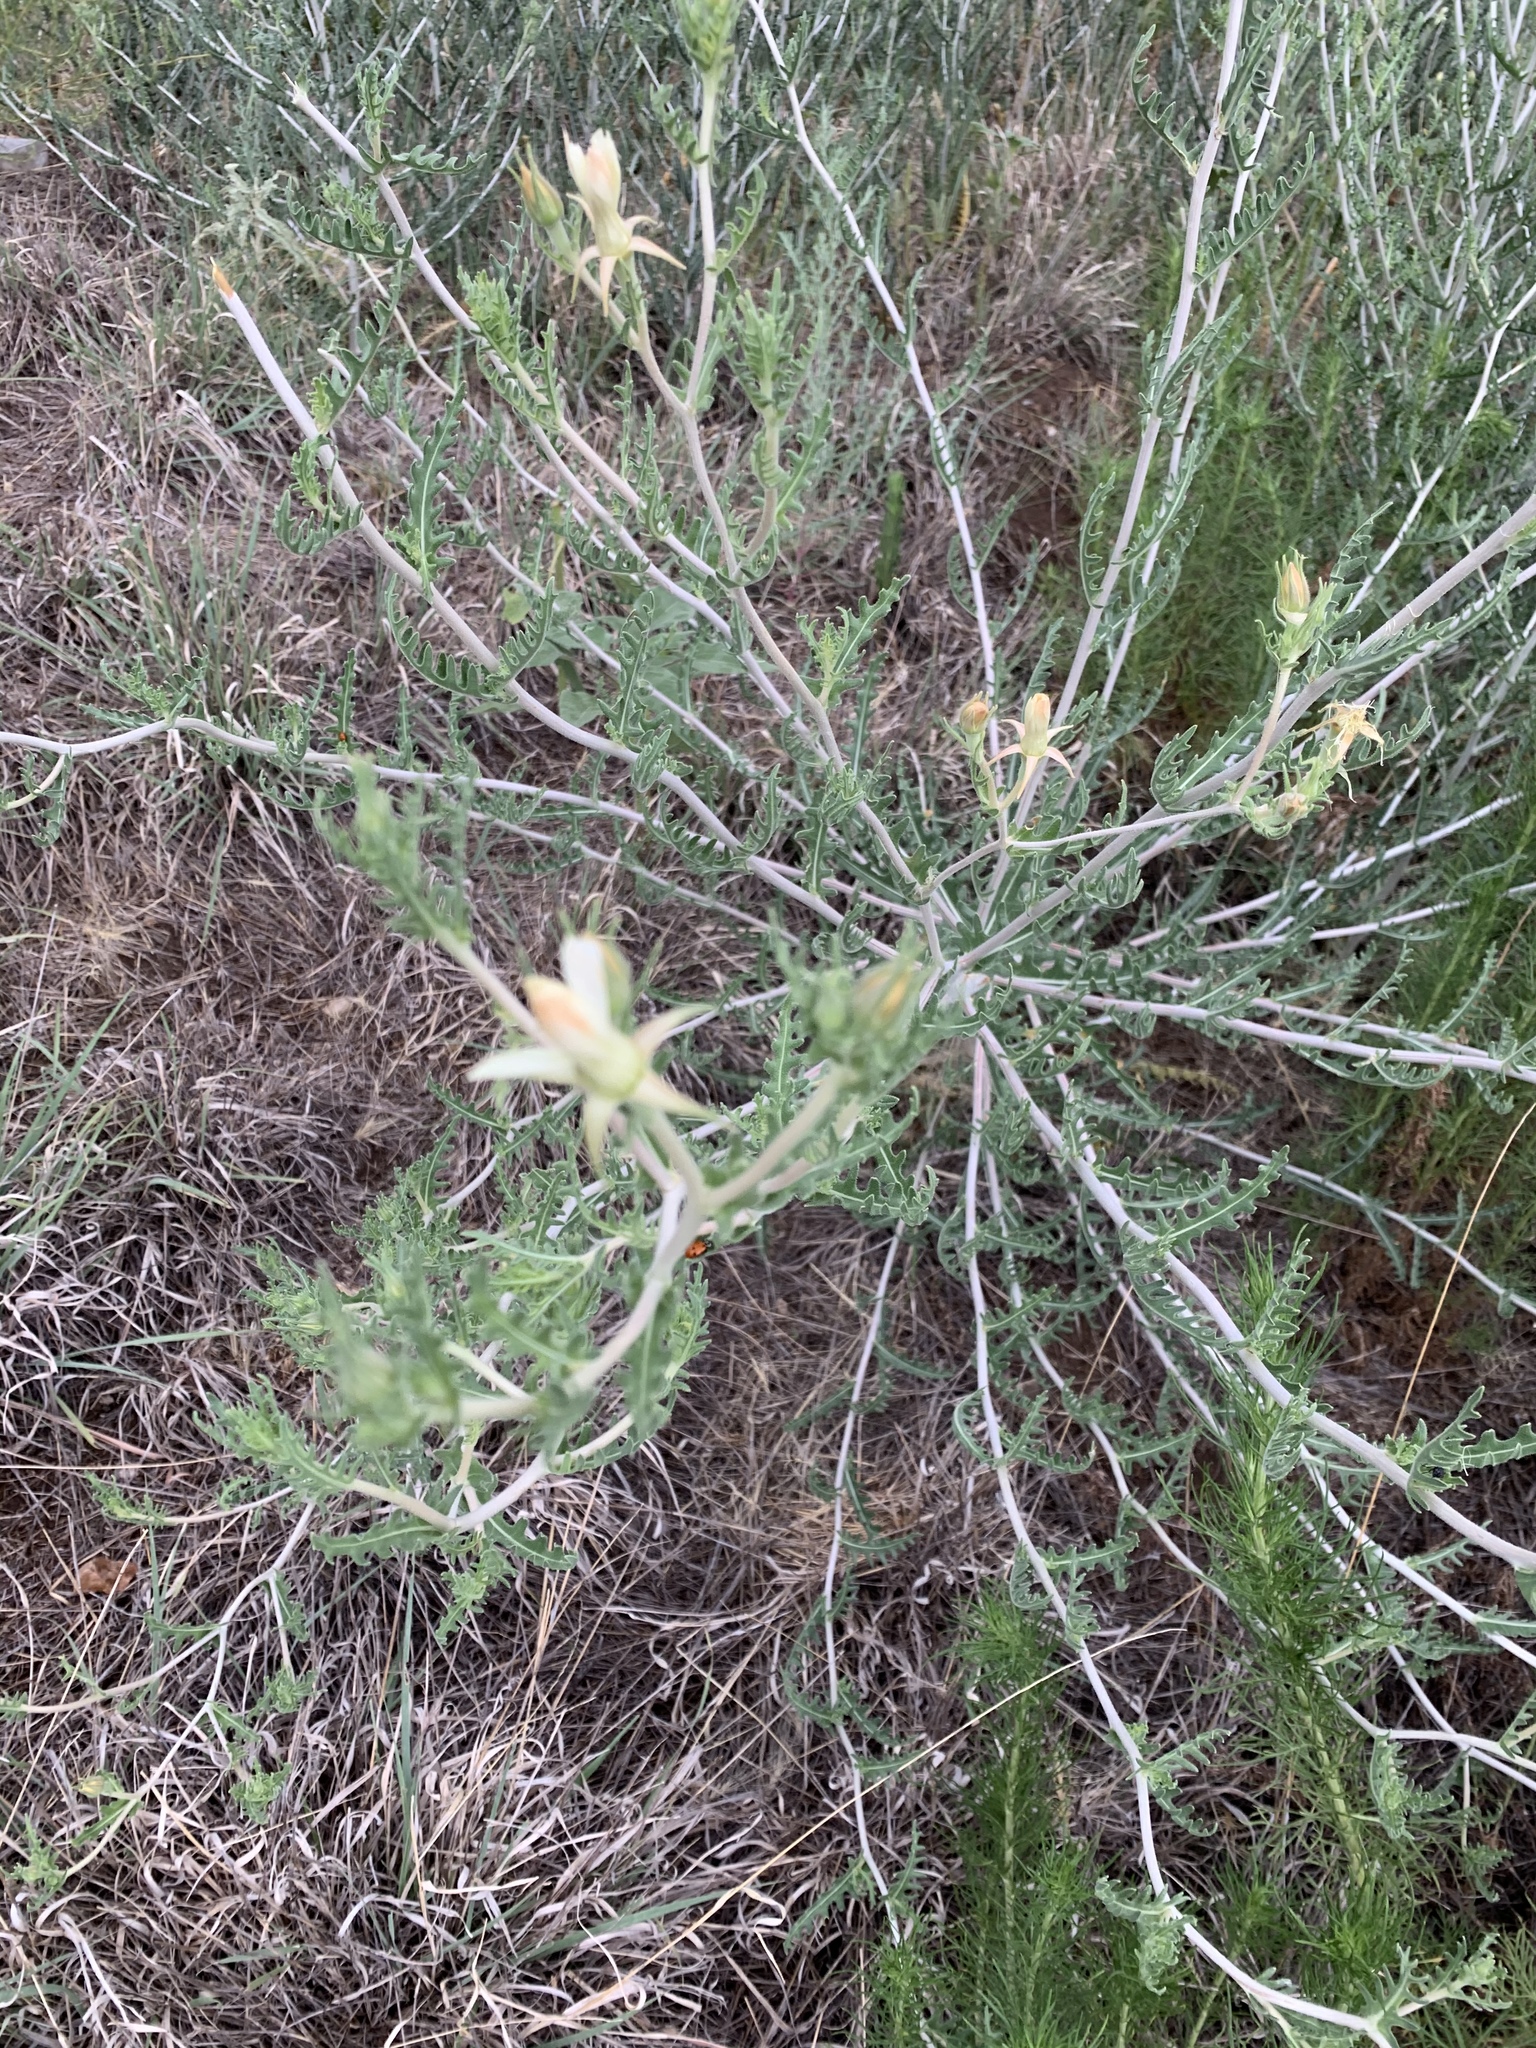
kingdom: Plantae
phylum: Tracheophyta
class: Magnoliopsida
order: Cornales
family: Loasaceae
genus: Mentzelia
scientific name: Mentzelia procera
